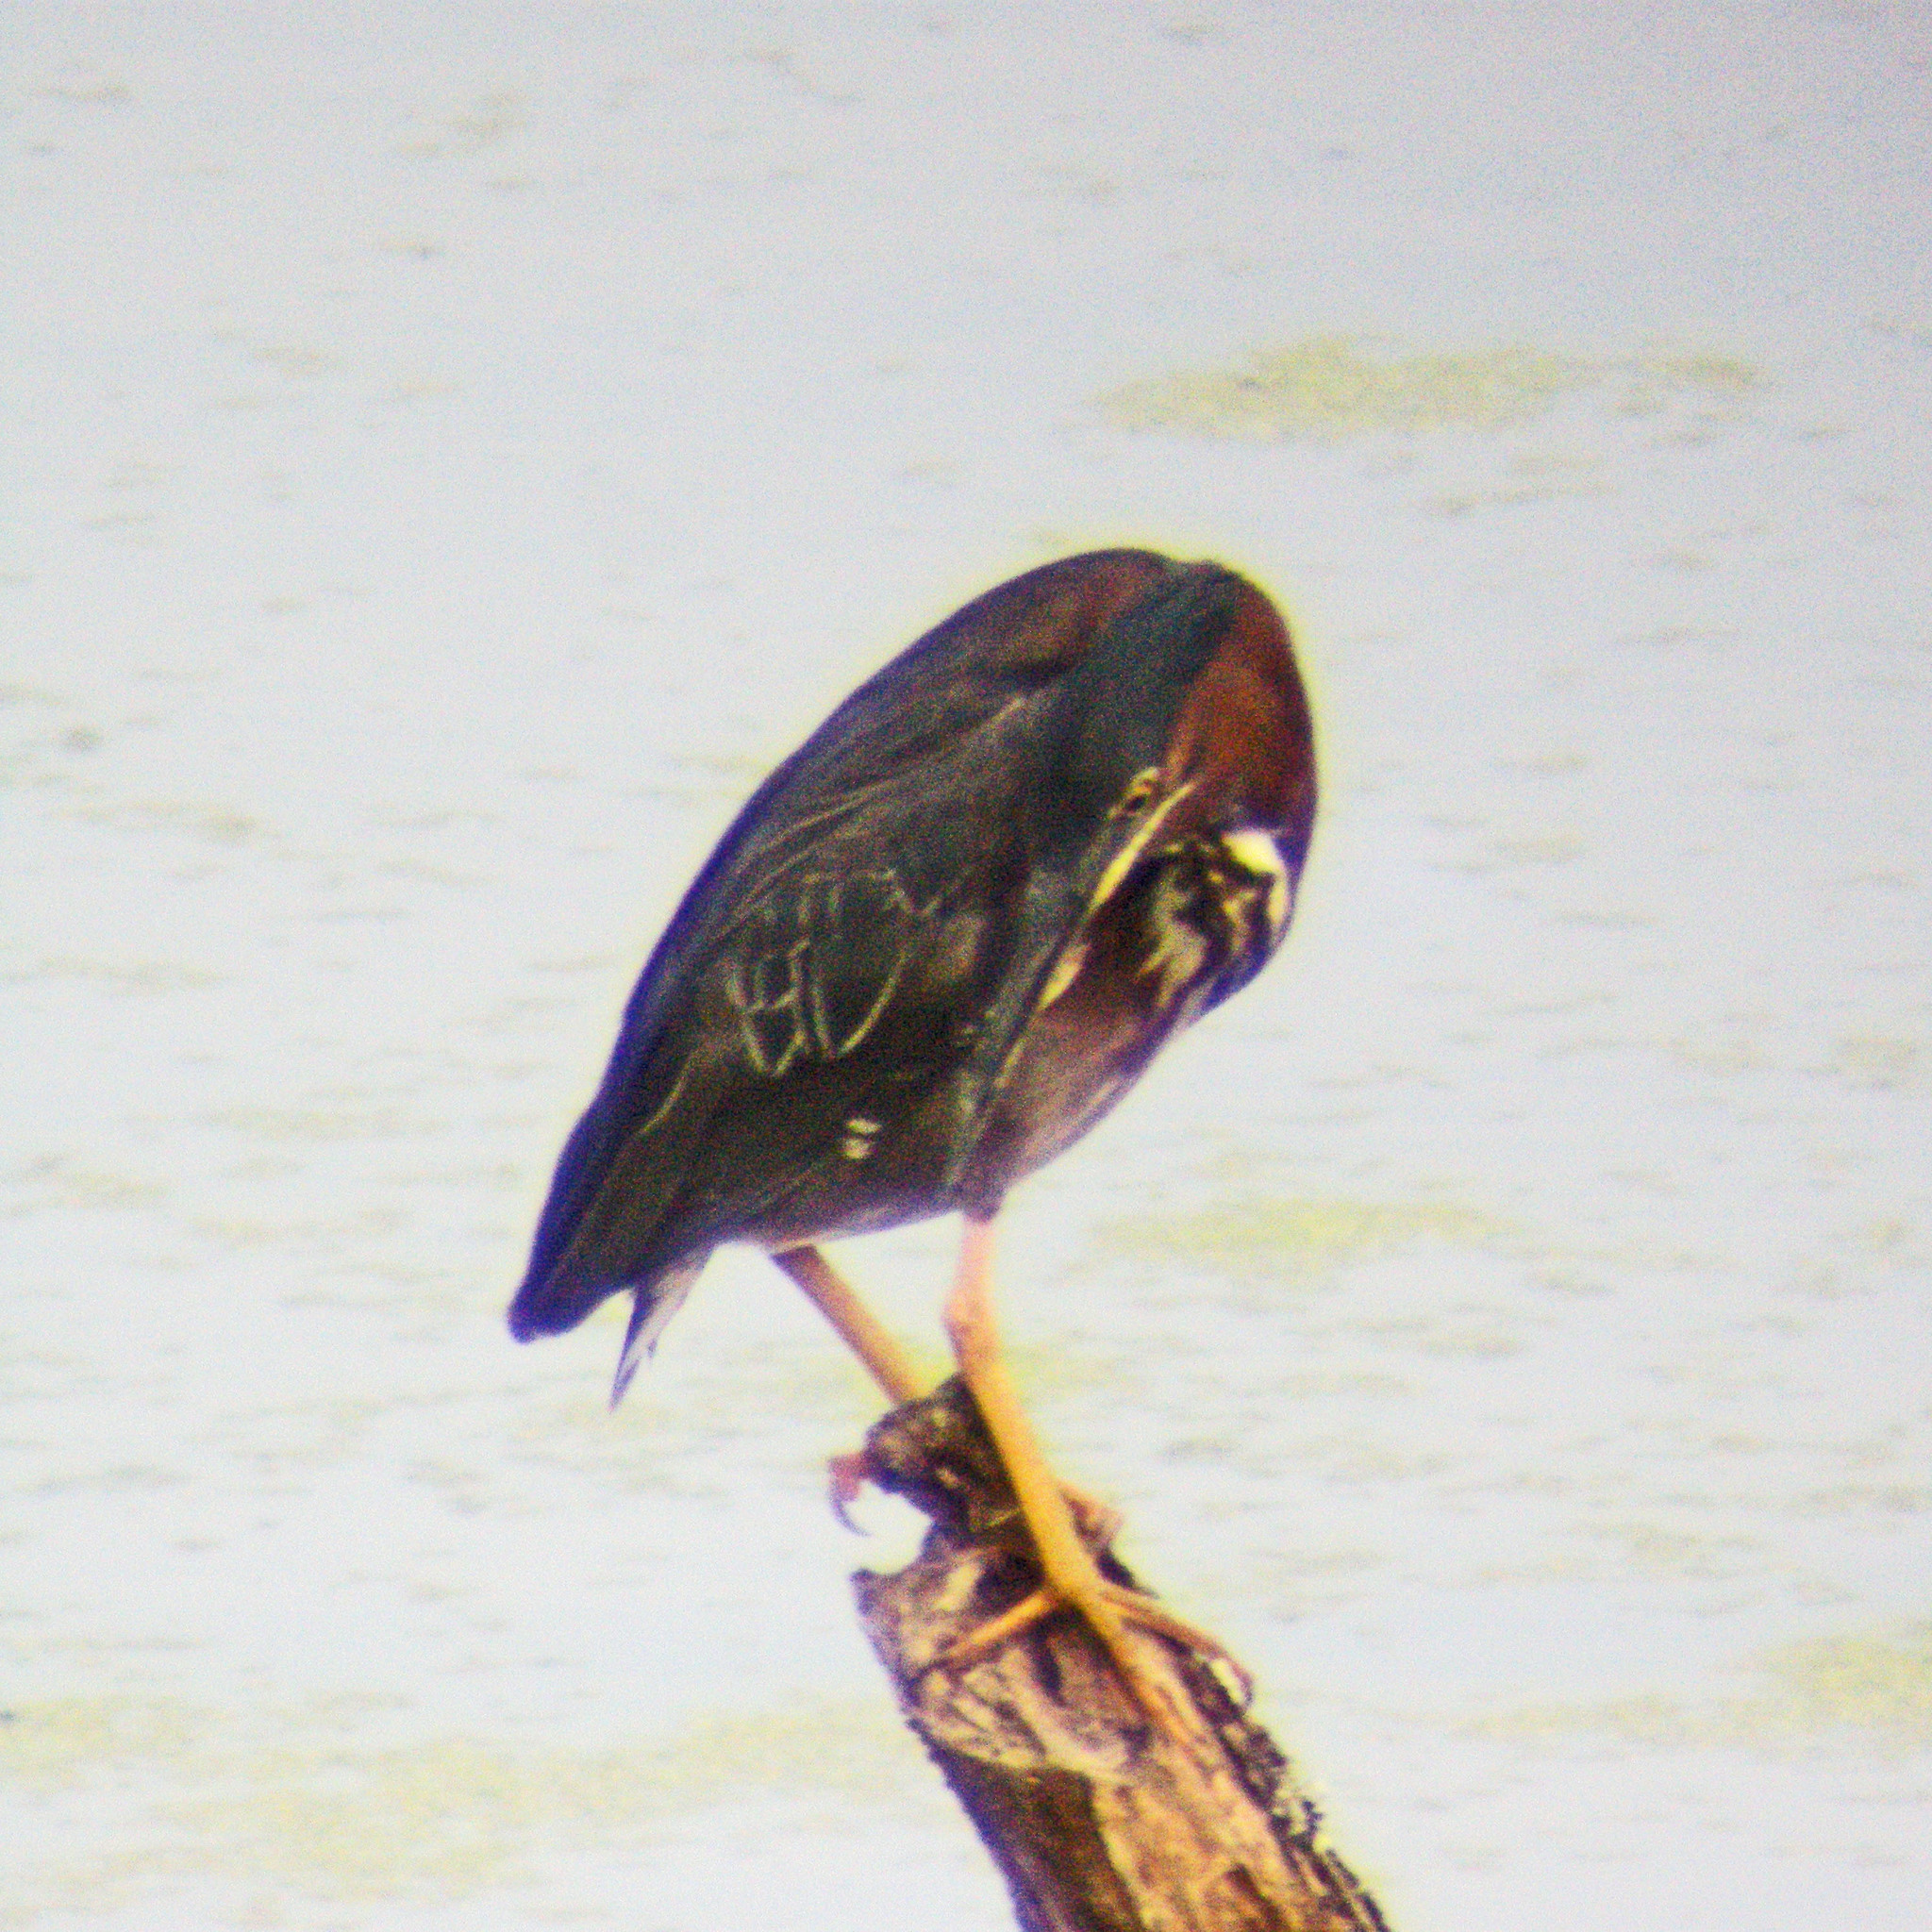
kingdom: Animalia
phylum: Chordata
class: Aves
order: Pelecaniformes
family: Ardeidae
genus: Butorides
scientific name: Butorides virescens
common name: Green heron
